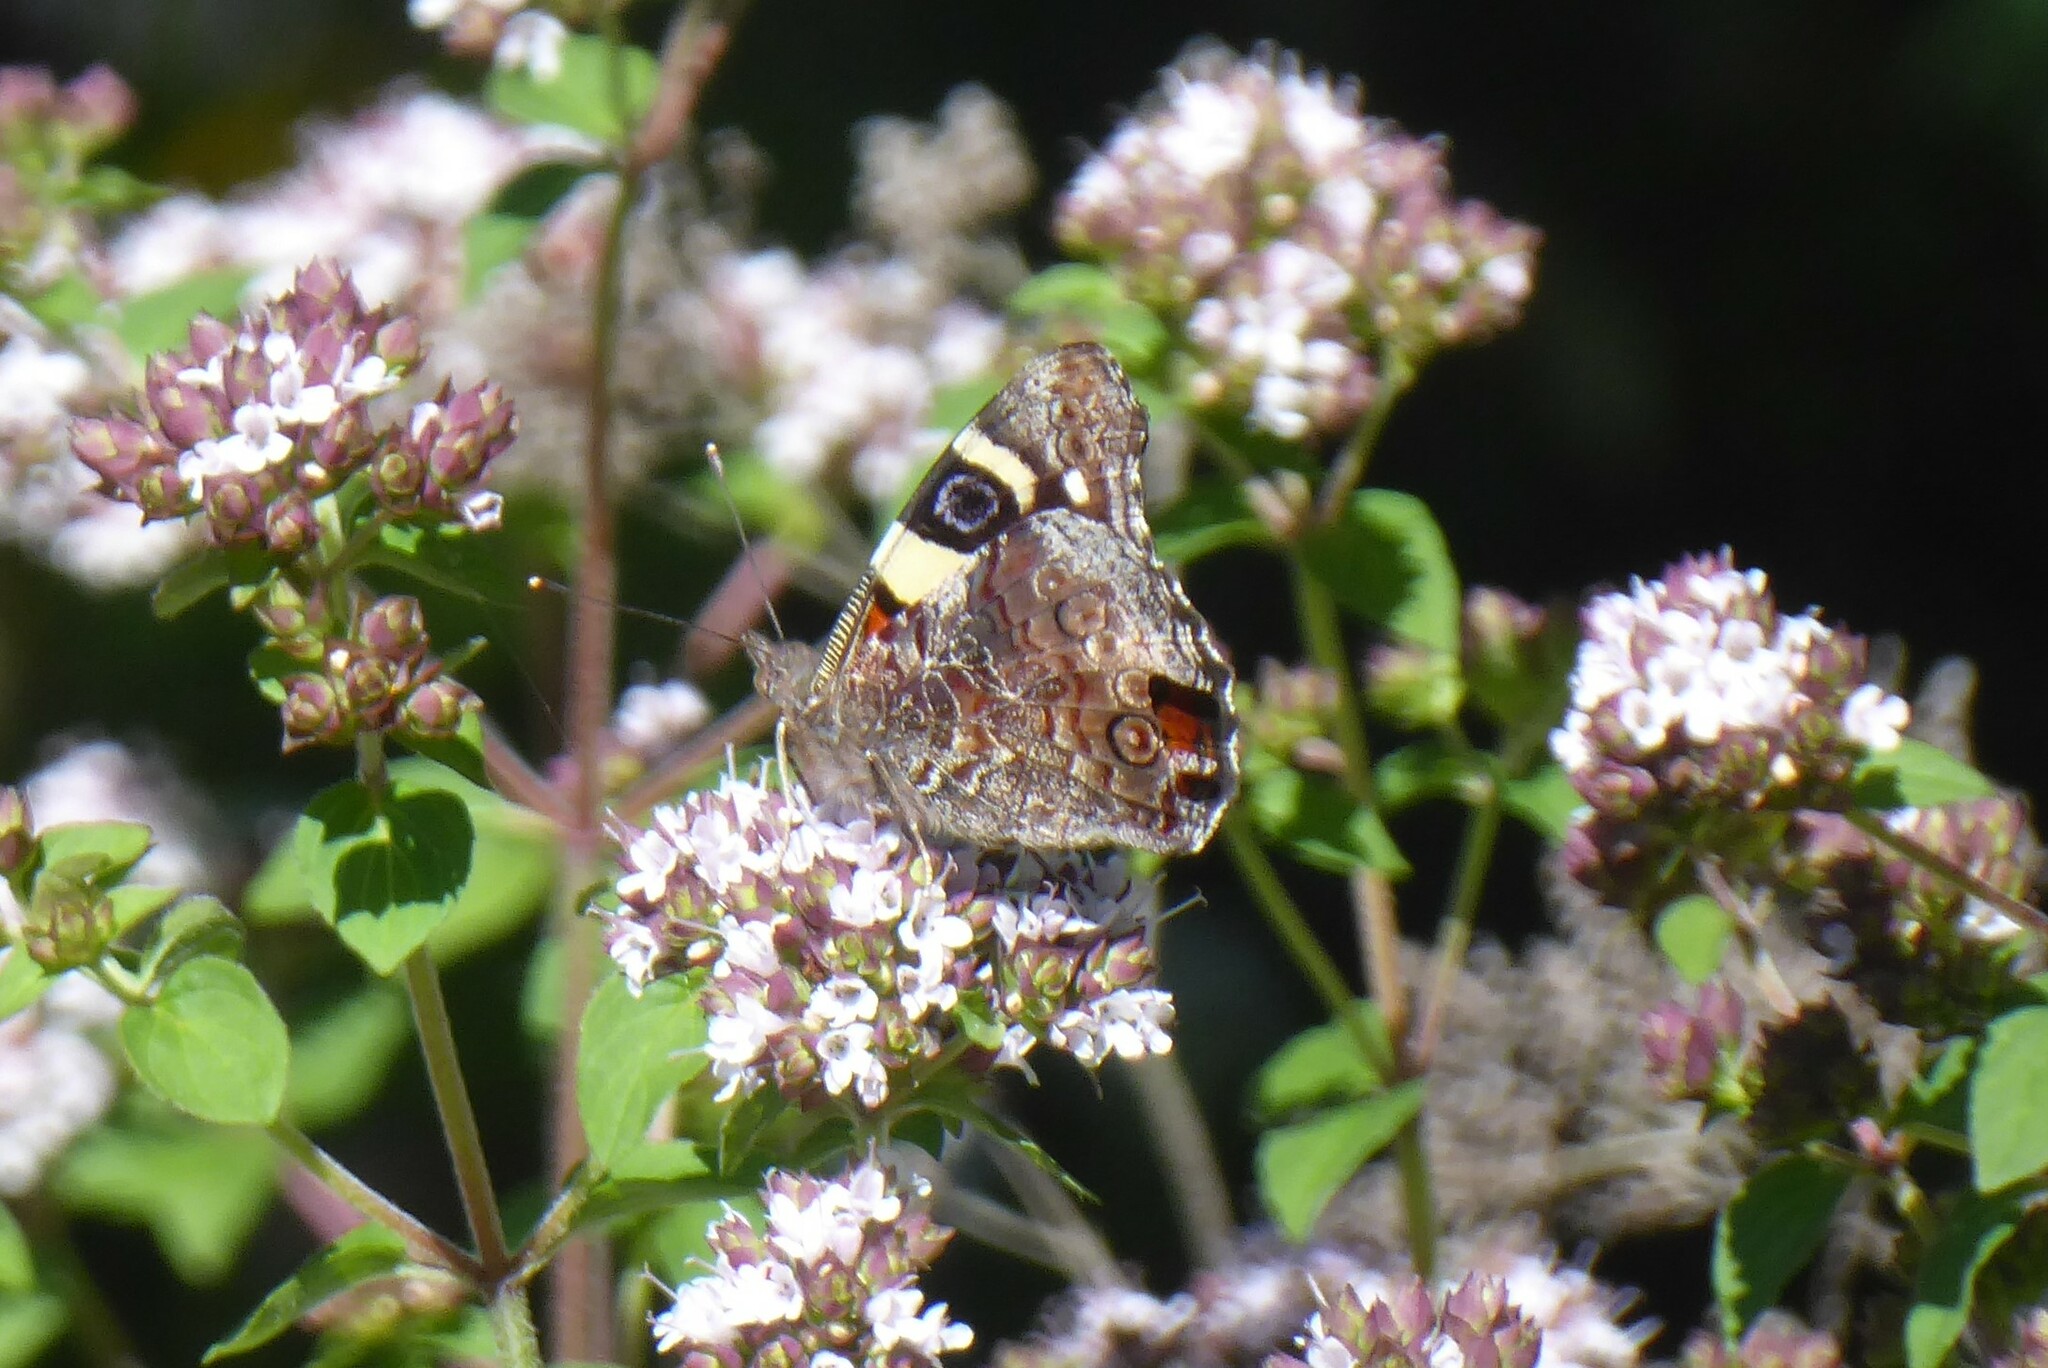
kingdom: Animalia
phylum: Arthropoda
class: Insecta
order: Lepidoptera
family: Nymphalidae
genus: Vanessa
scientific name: Vanessa itea
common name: Yellow admiral
